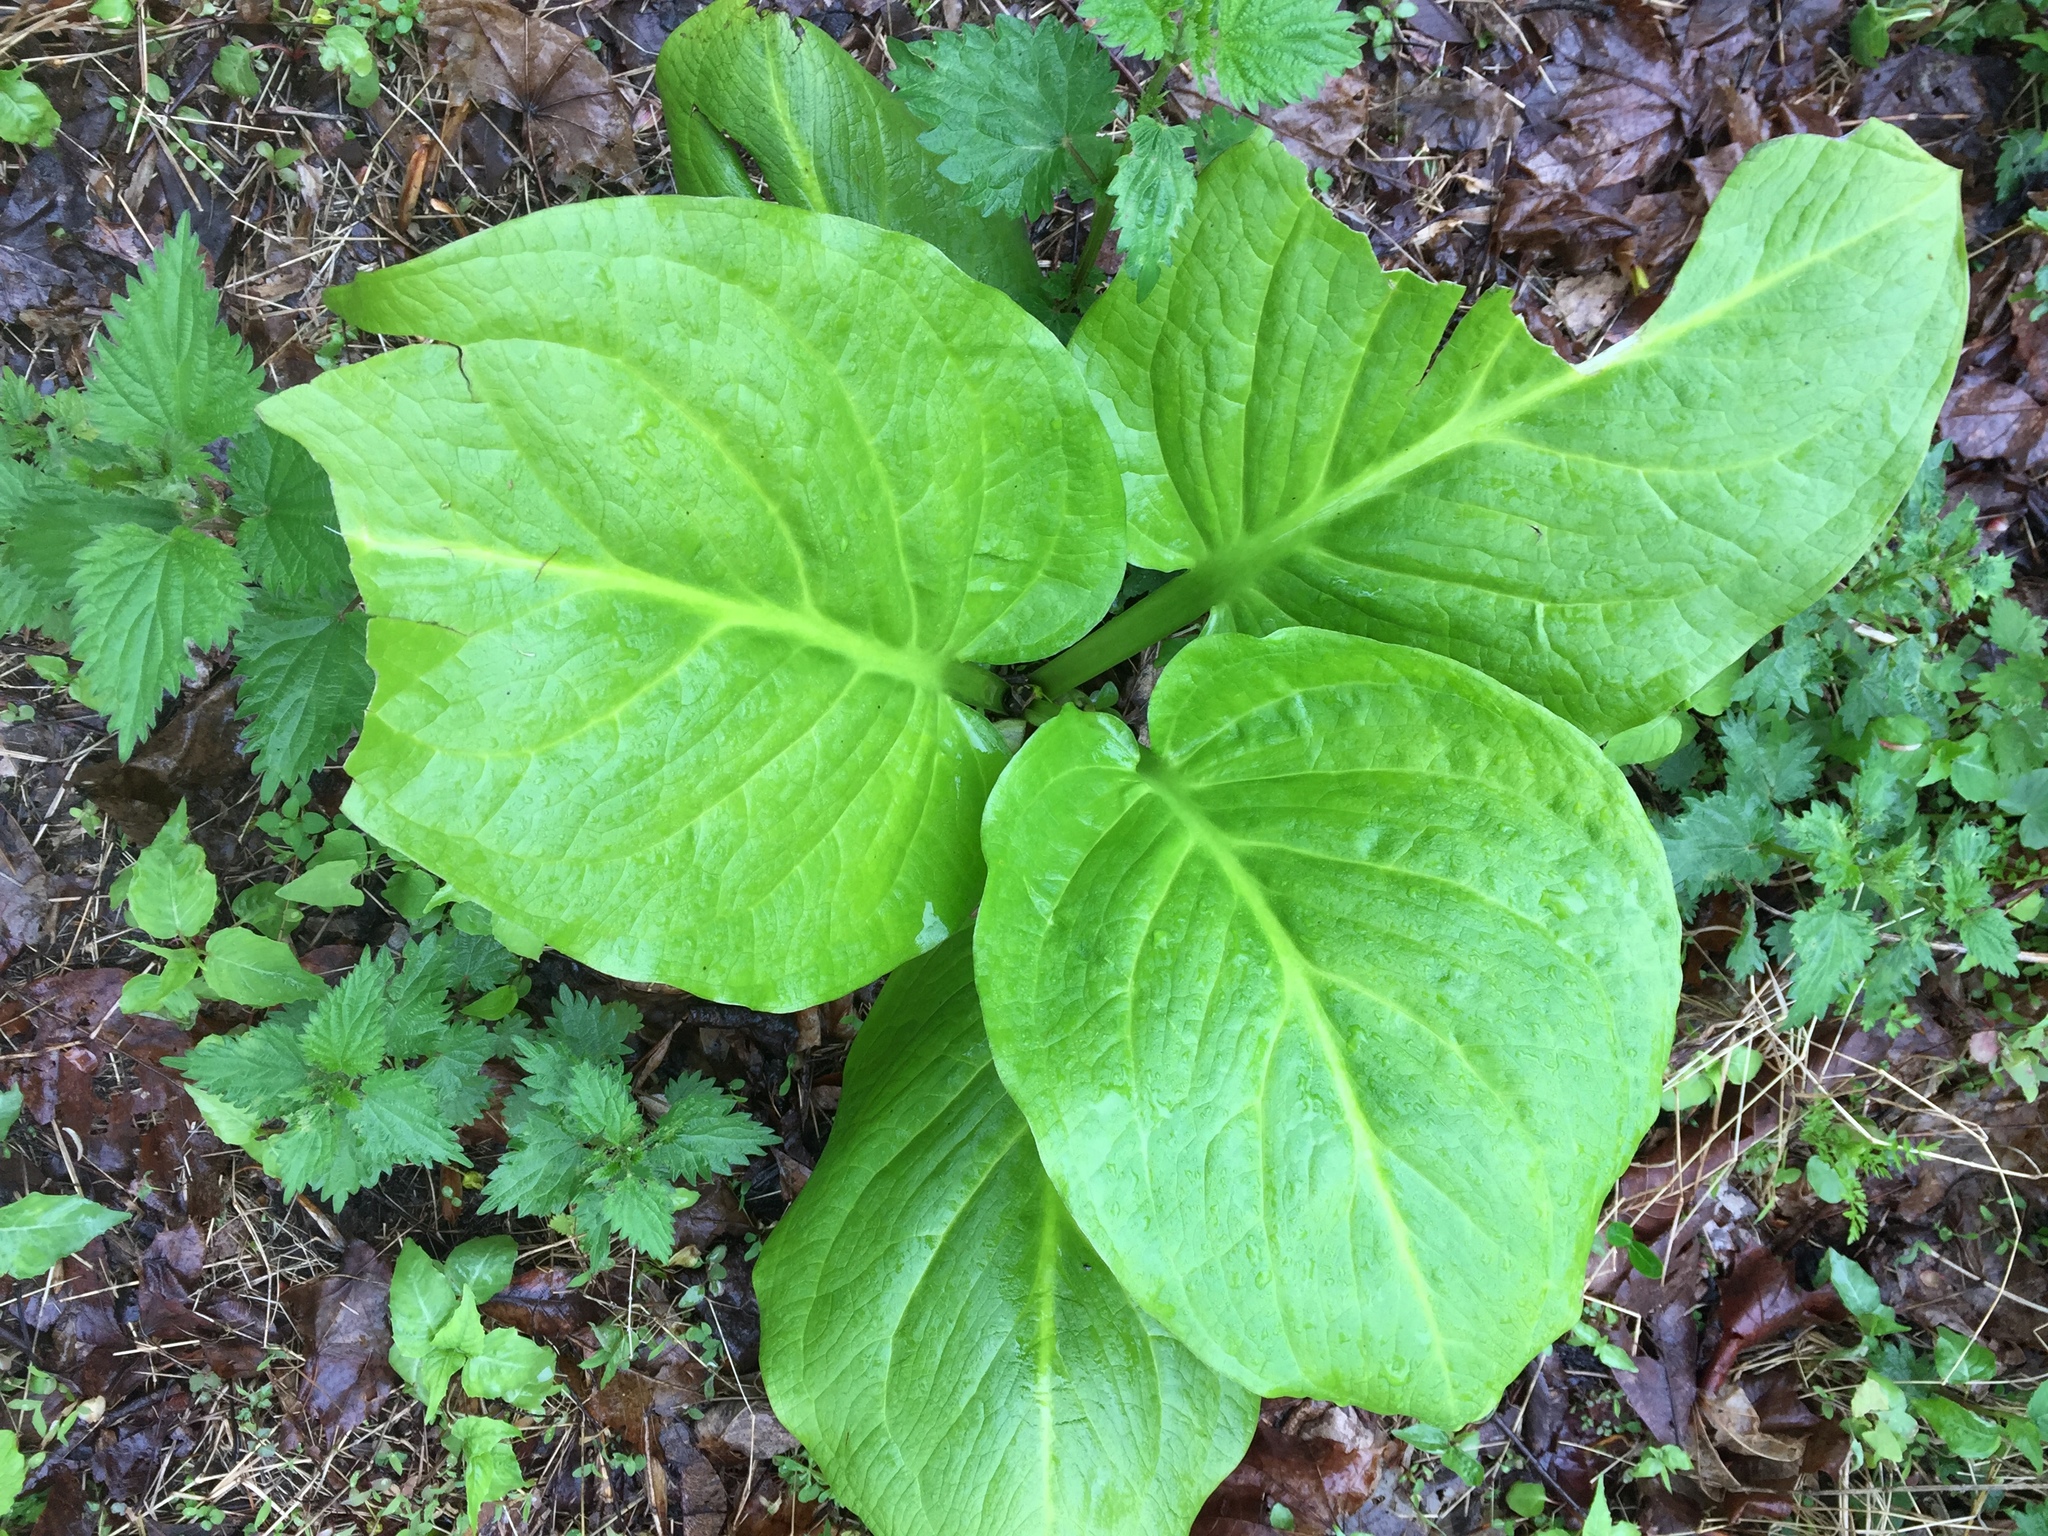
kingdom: Plantae
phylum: Tracheophyta
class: Liliopsida
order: Alismatales
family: Araceae
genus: Symplocarpus
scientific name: Symplocarpus foetidus
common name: Eastern skunk cabbage
